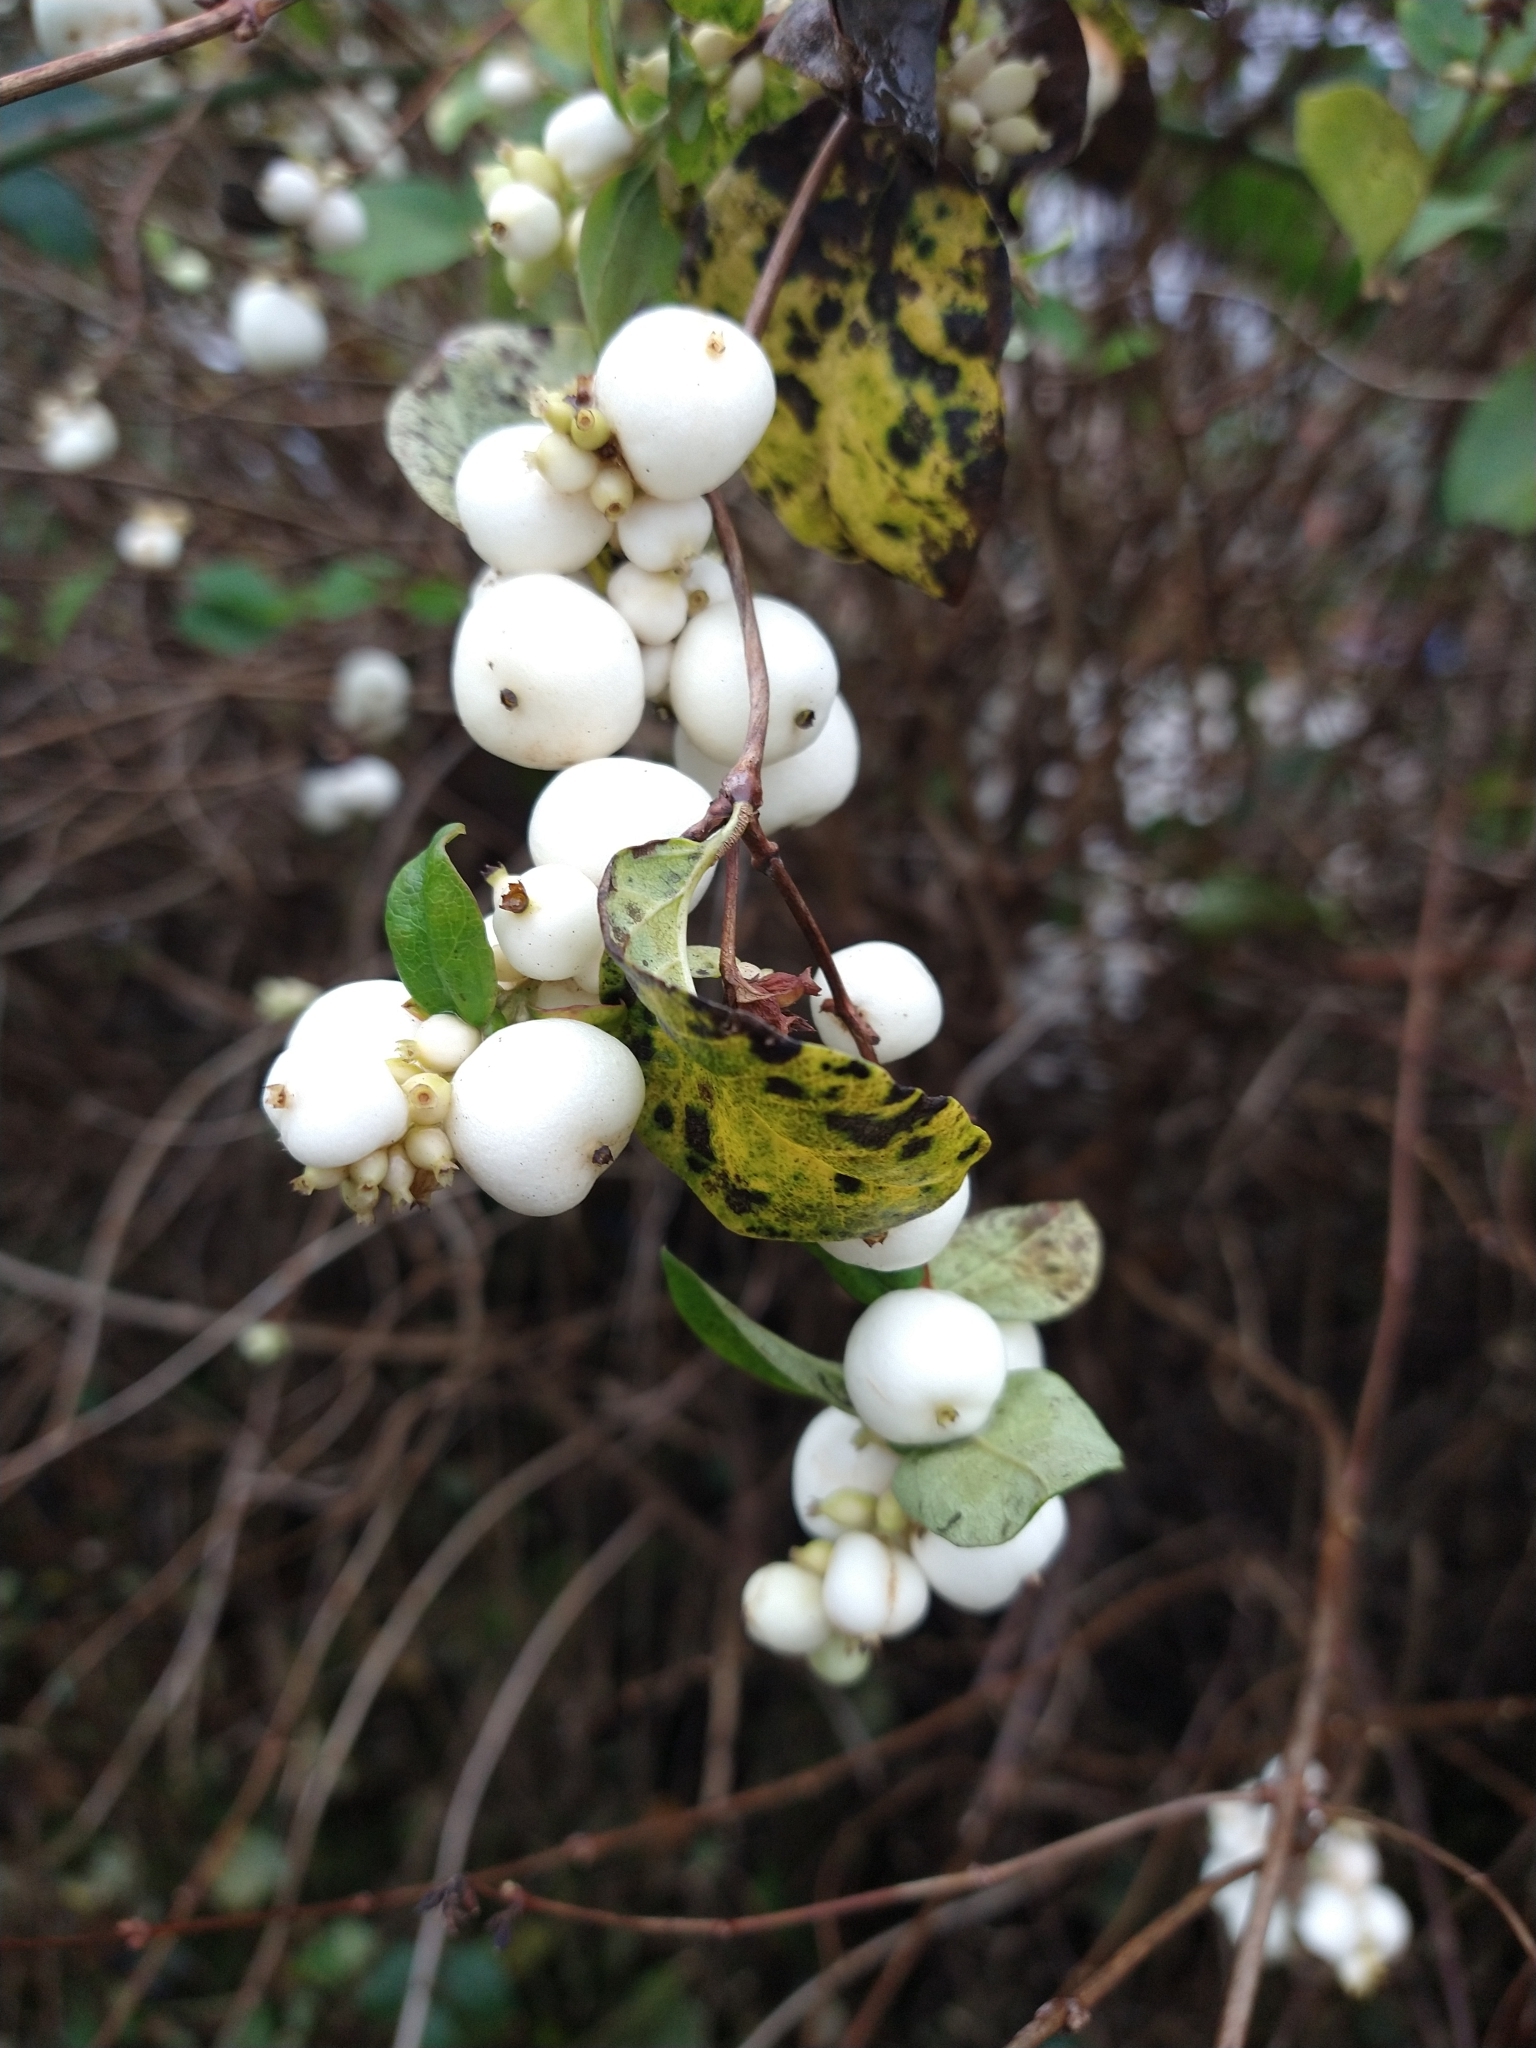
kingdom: Plantae
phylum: Tracheophyta
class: Magnoliopsida
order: Dipsacales
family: Caprifoliaceae
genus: Symphoricarpos
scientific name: Symphoricarpos albus
